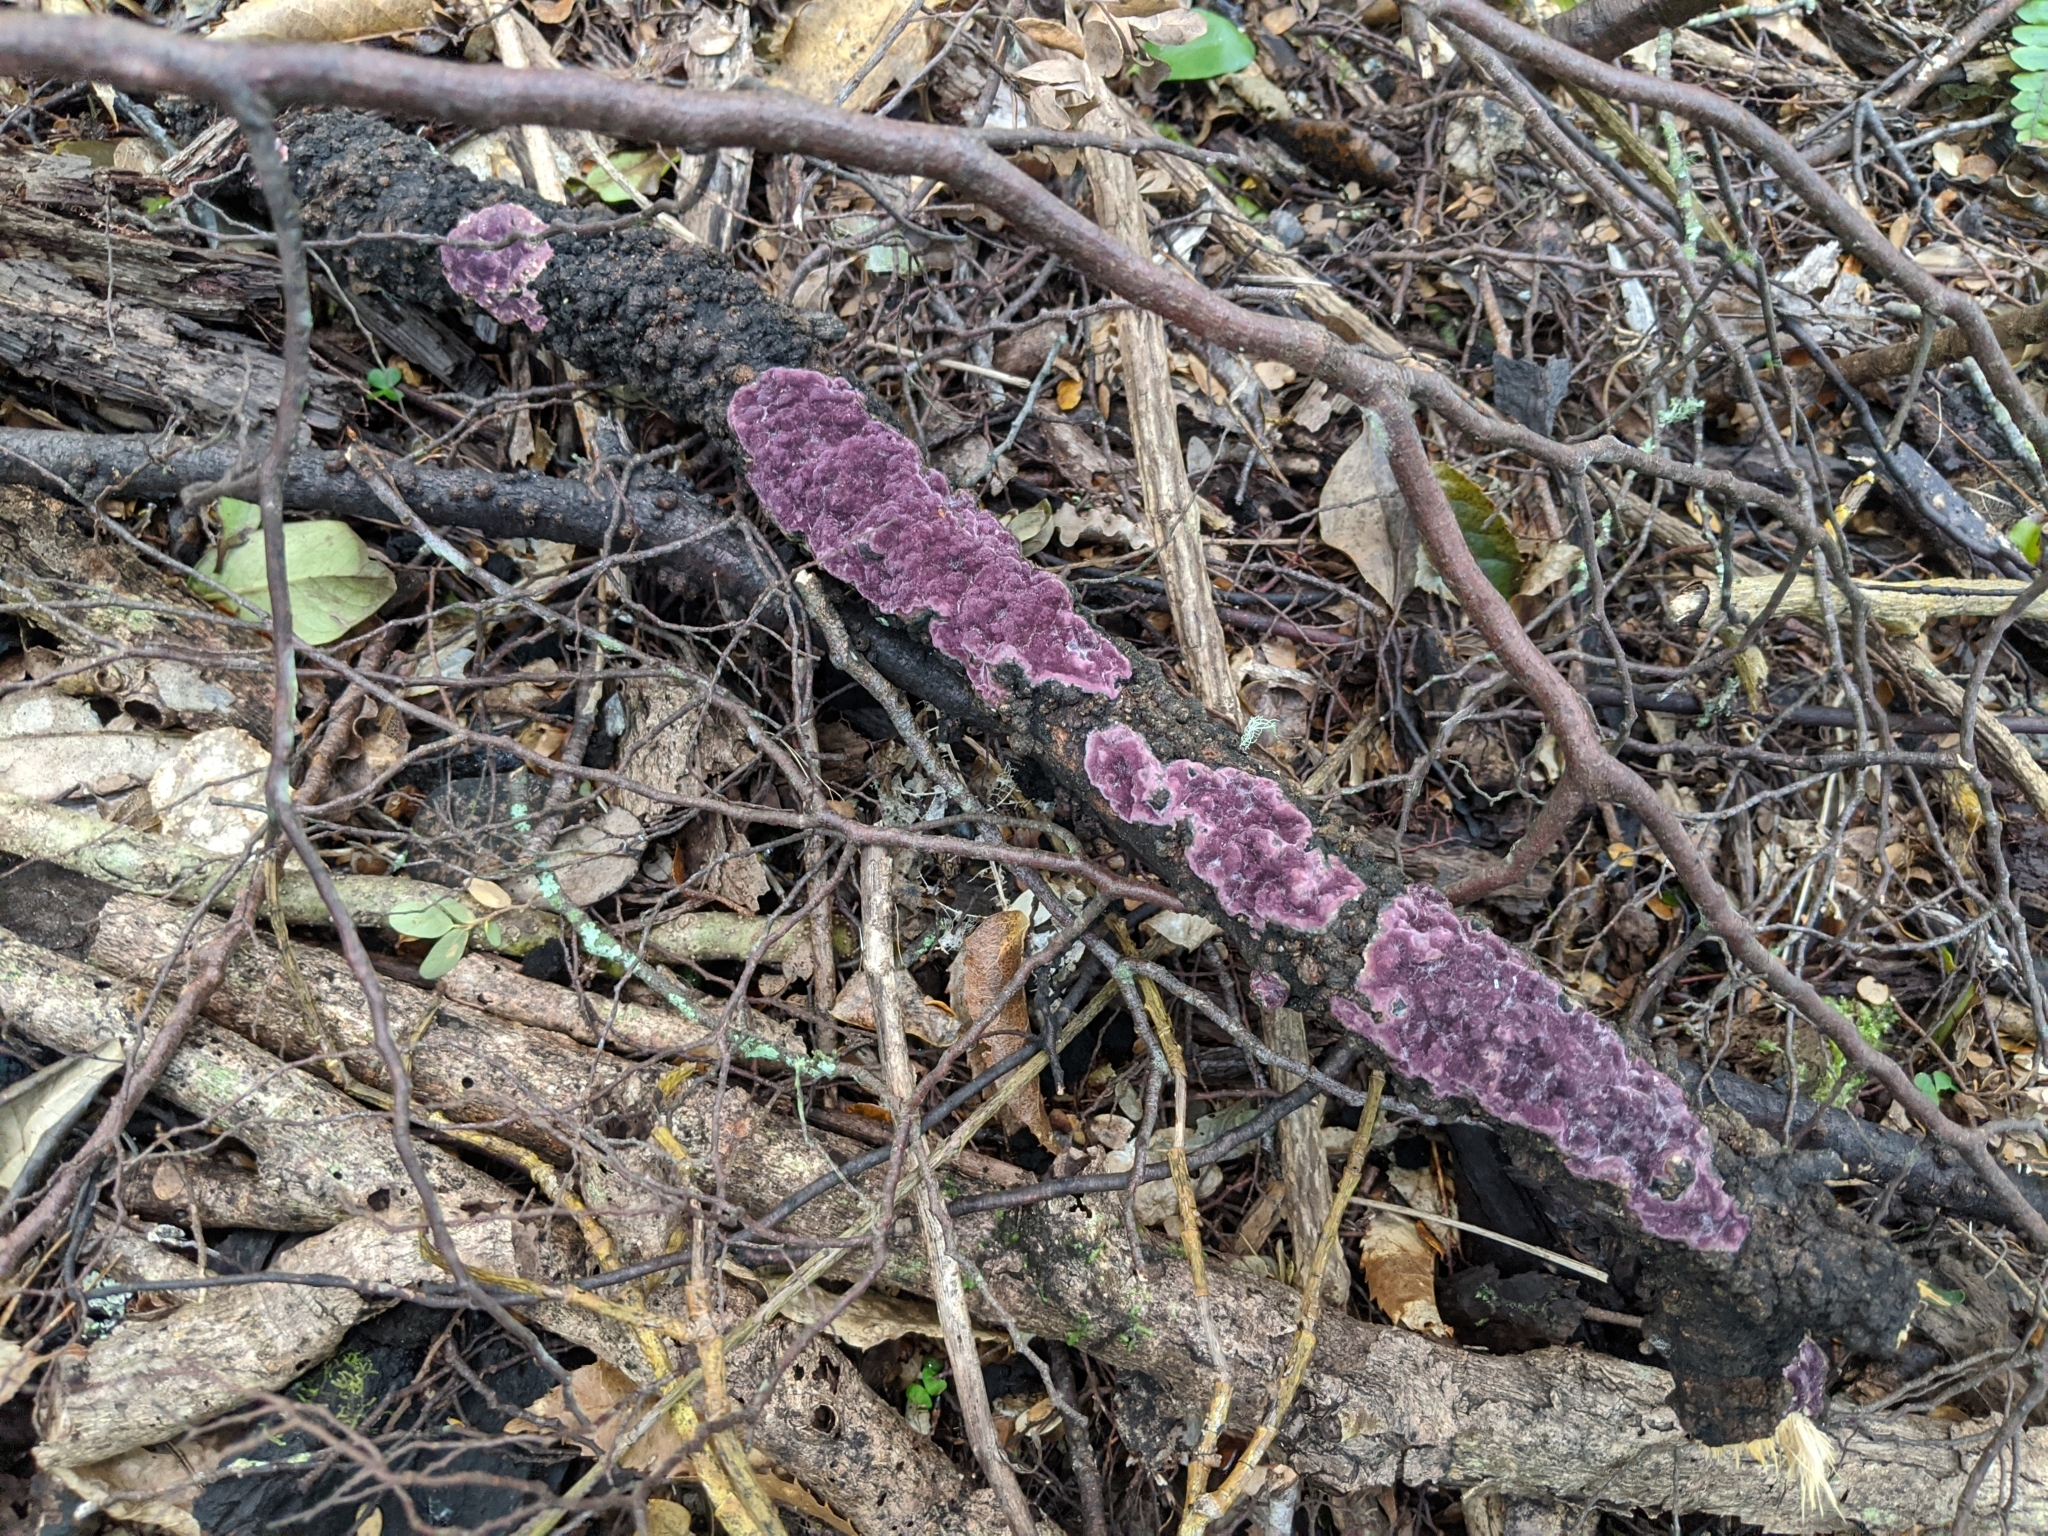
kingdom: Fungi
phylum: Basidiomycota
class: Agaricomycetes
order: Polyporales
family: Irpicaceae
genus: Byssomerulius
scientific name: Byssomerulius psittacinus
